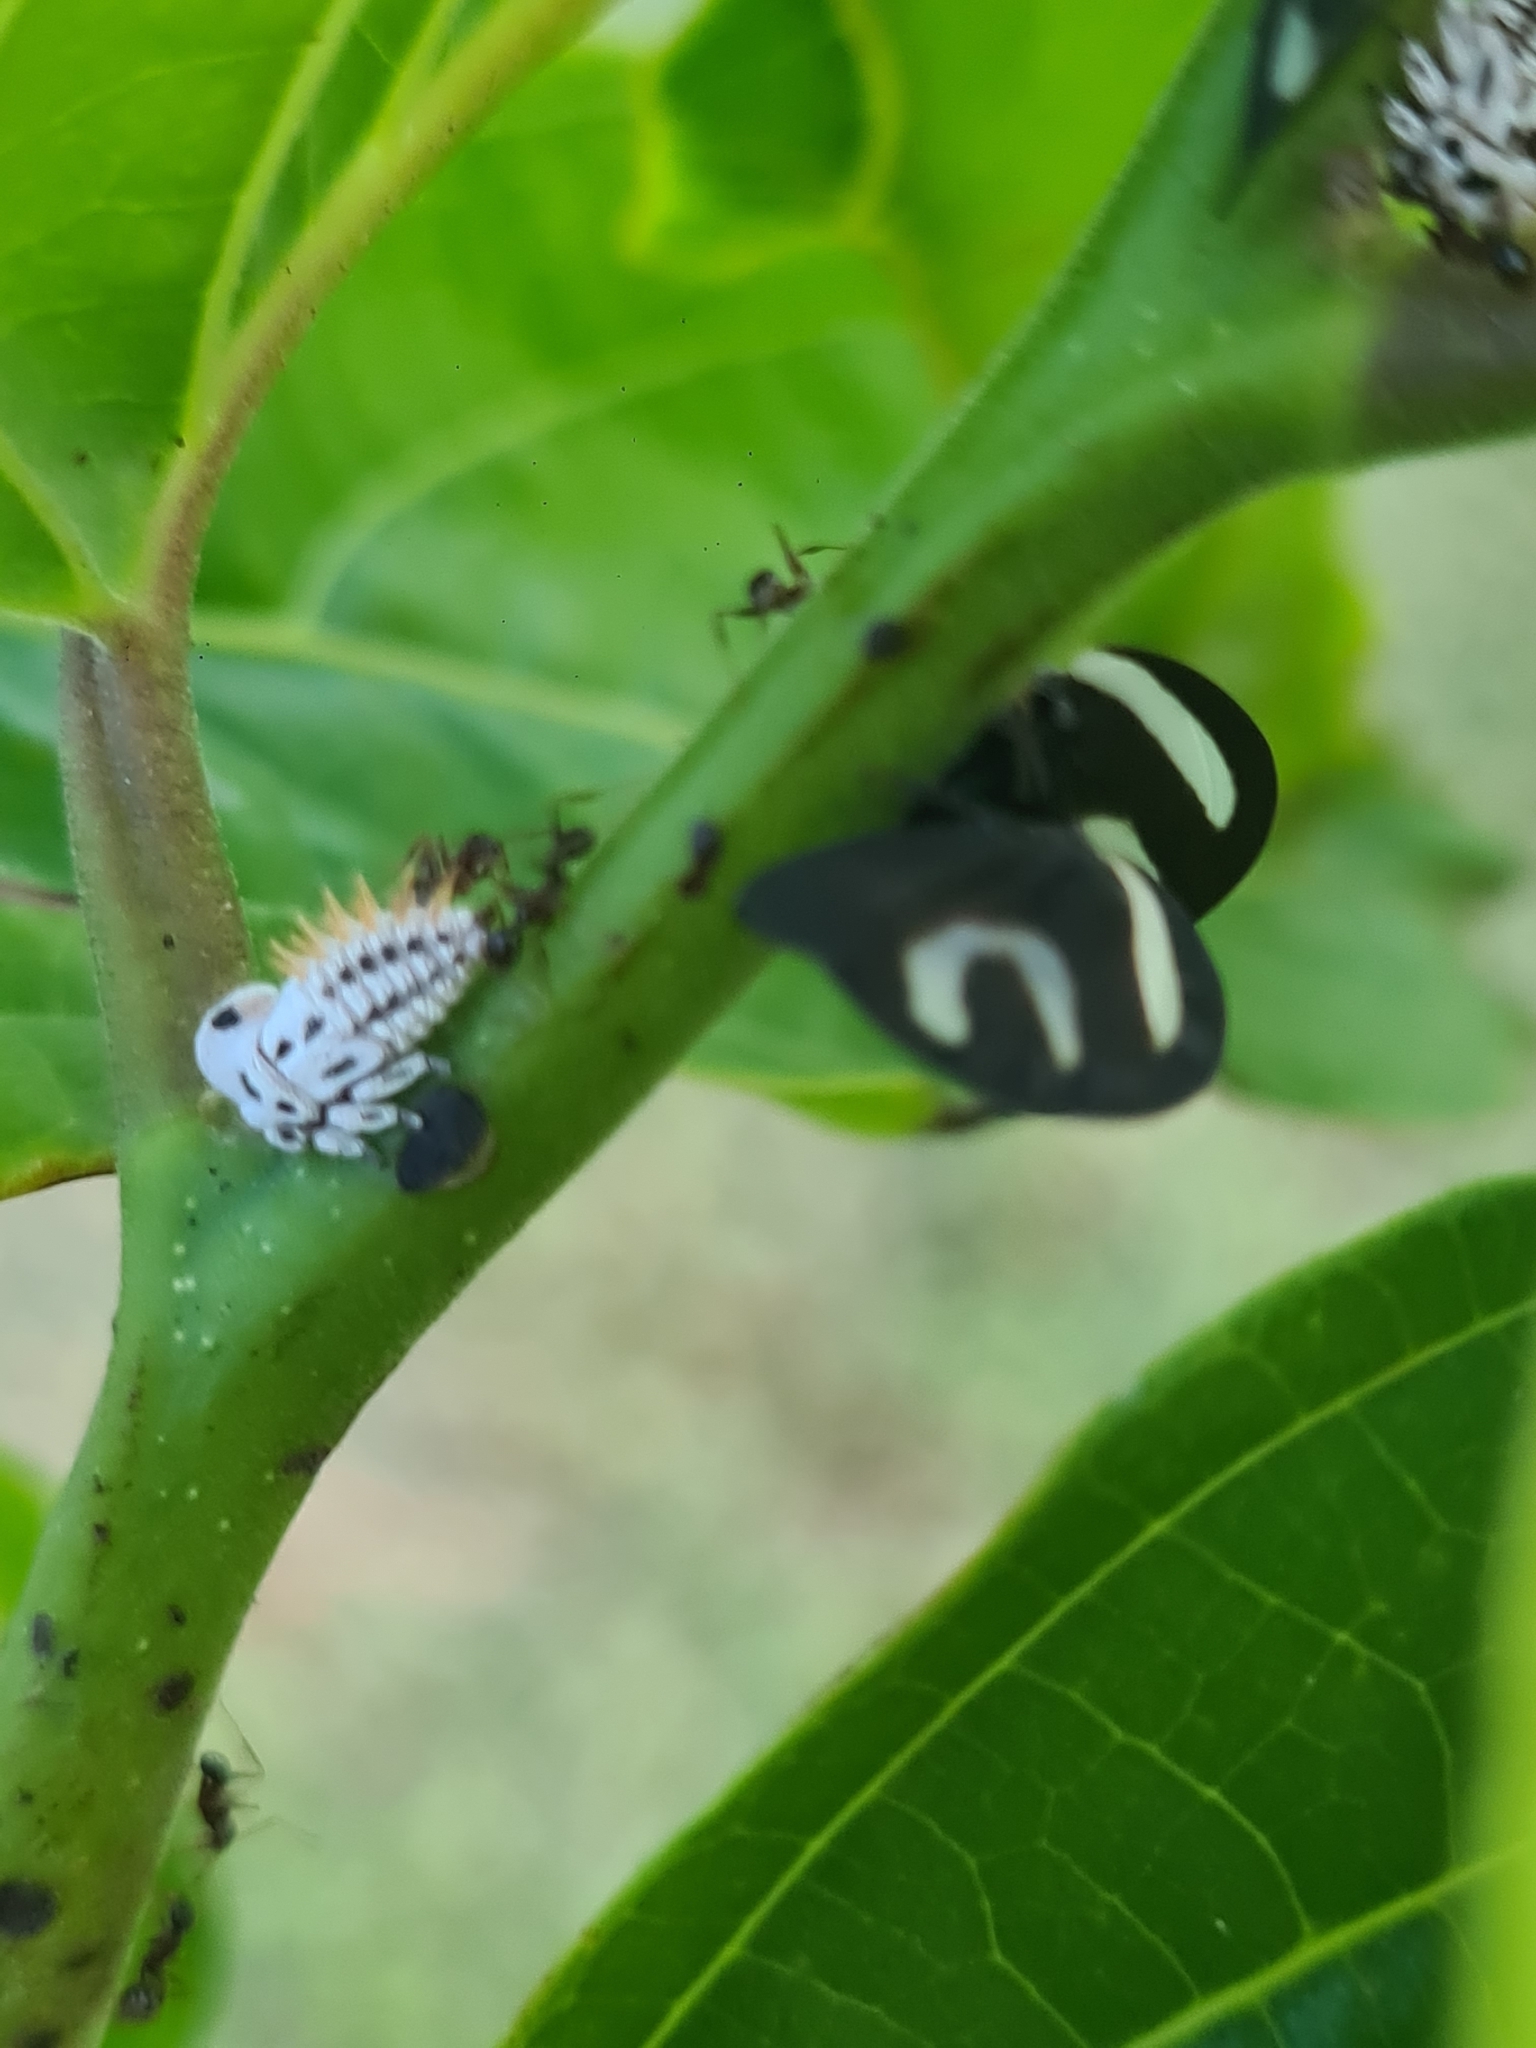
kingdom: Animalia
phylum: Arthropoda
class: Insecta
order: Hemiptera
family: Membracidae
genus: Membracis
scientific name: Membracis foliatafasciata
